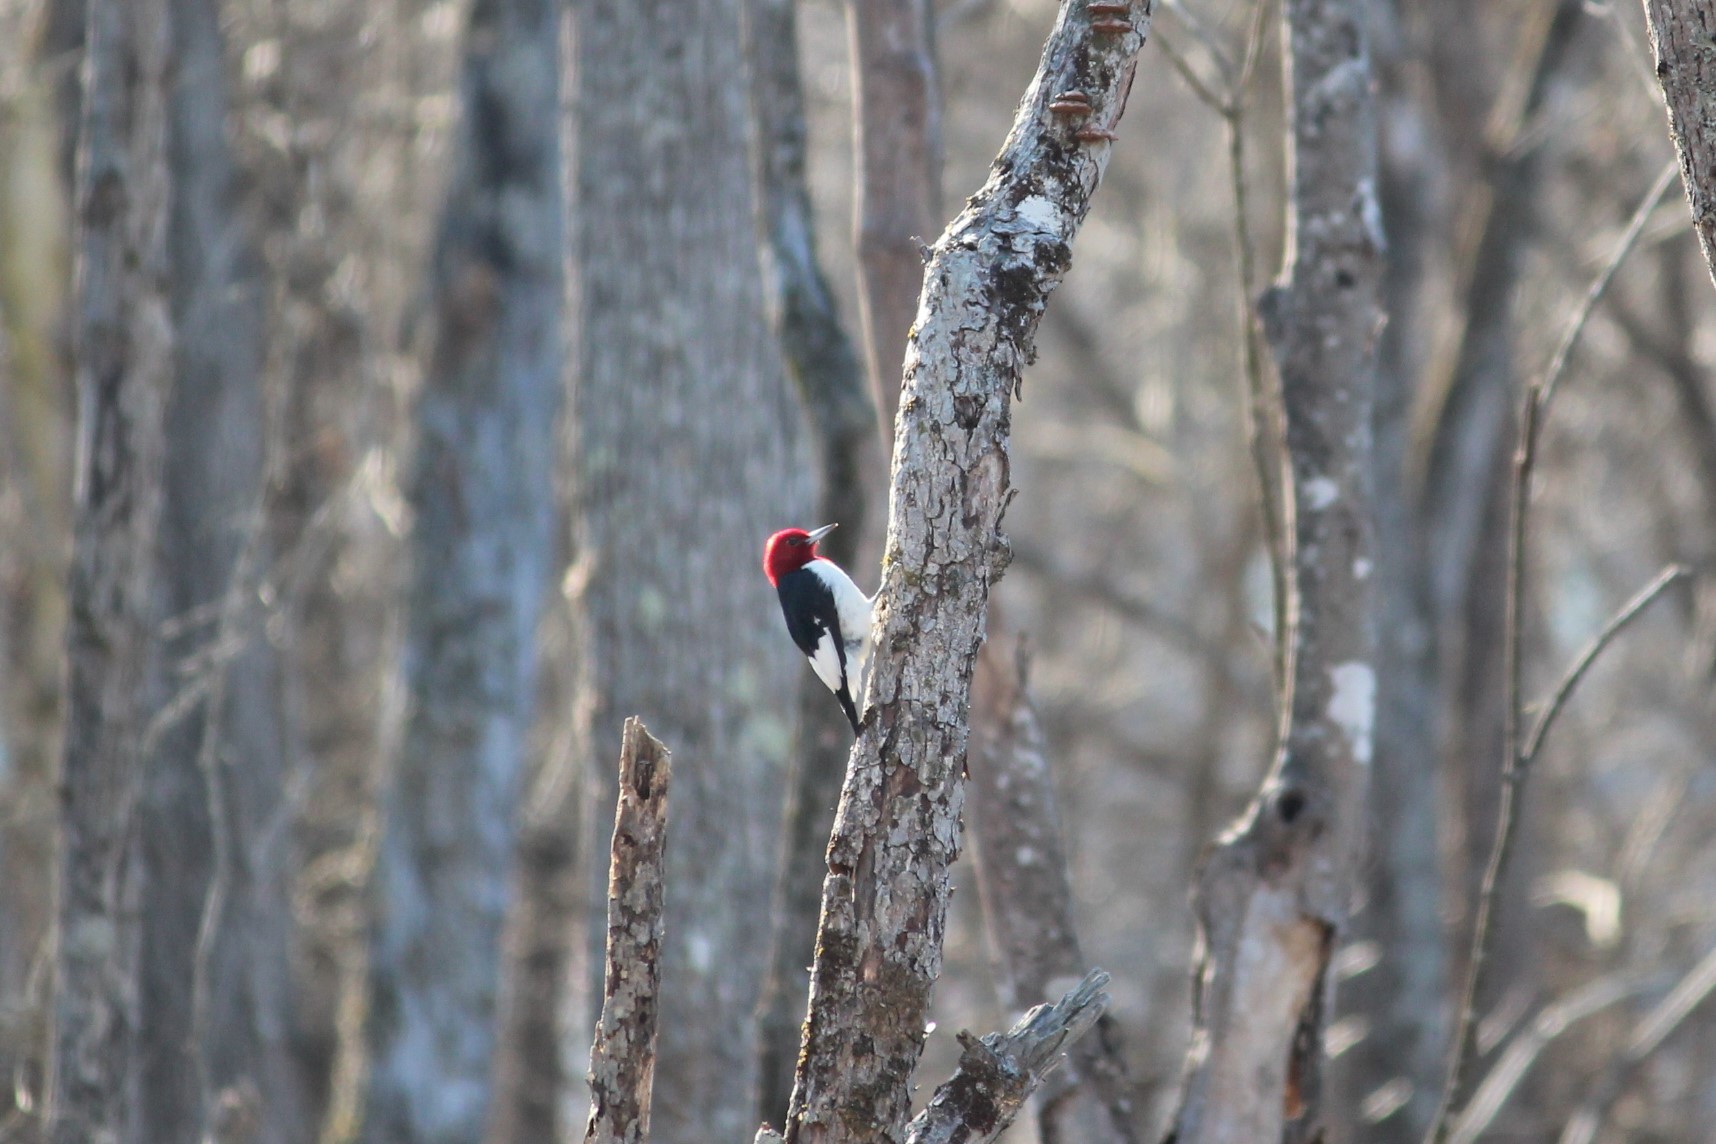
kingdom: Animalia
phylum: Chordata
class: Aves
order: Piciformes
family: Picidae
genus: Melanerpes
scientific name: Melanerpes erythrocephalus
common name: Red-headed woodpecker
